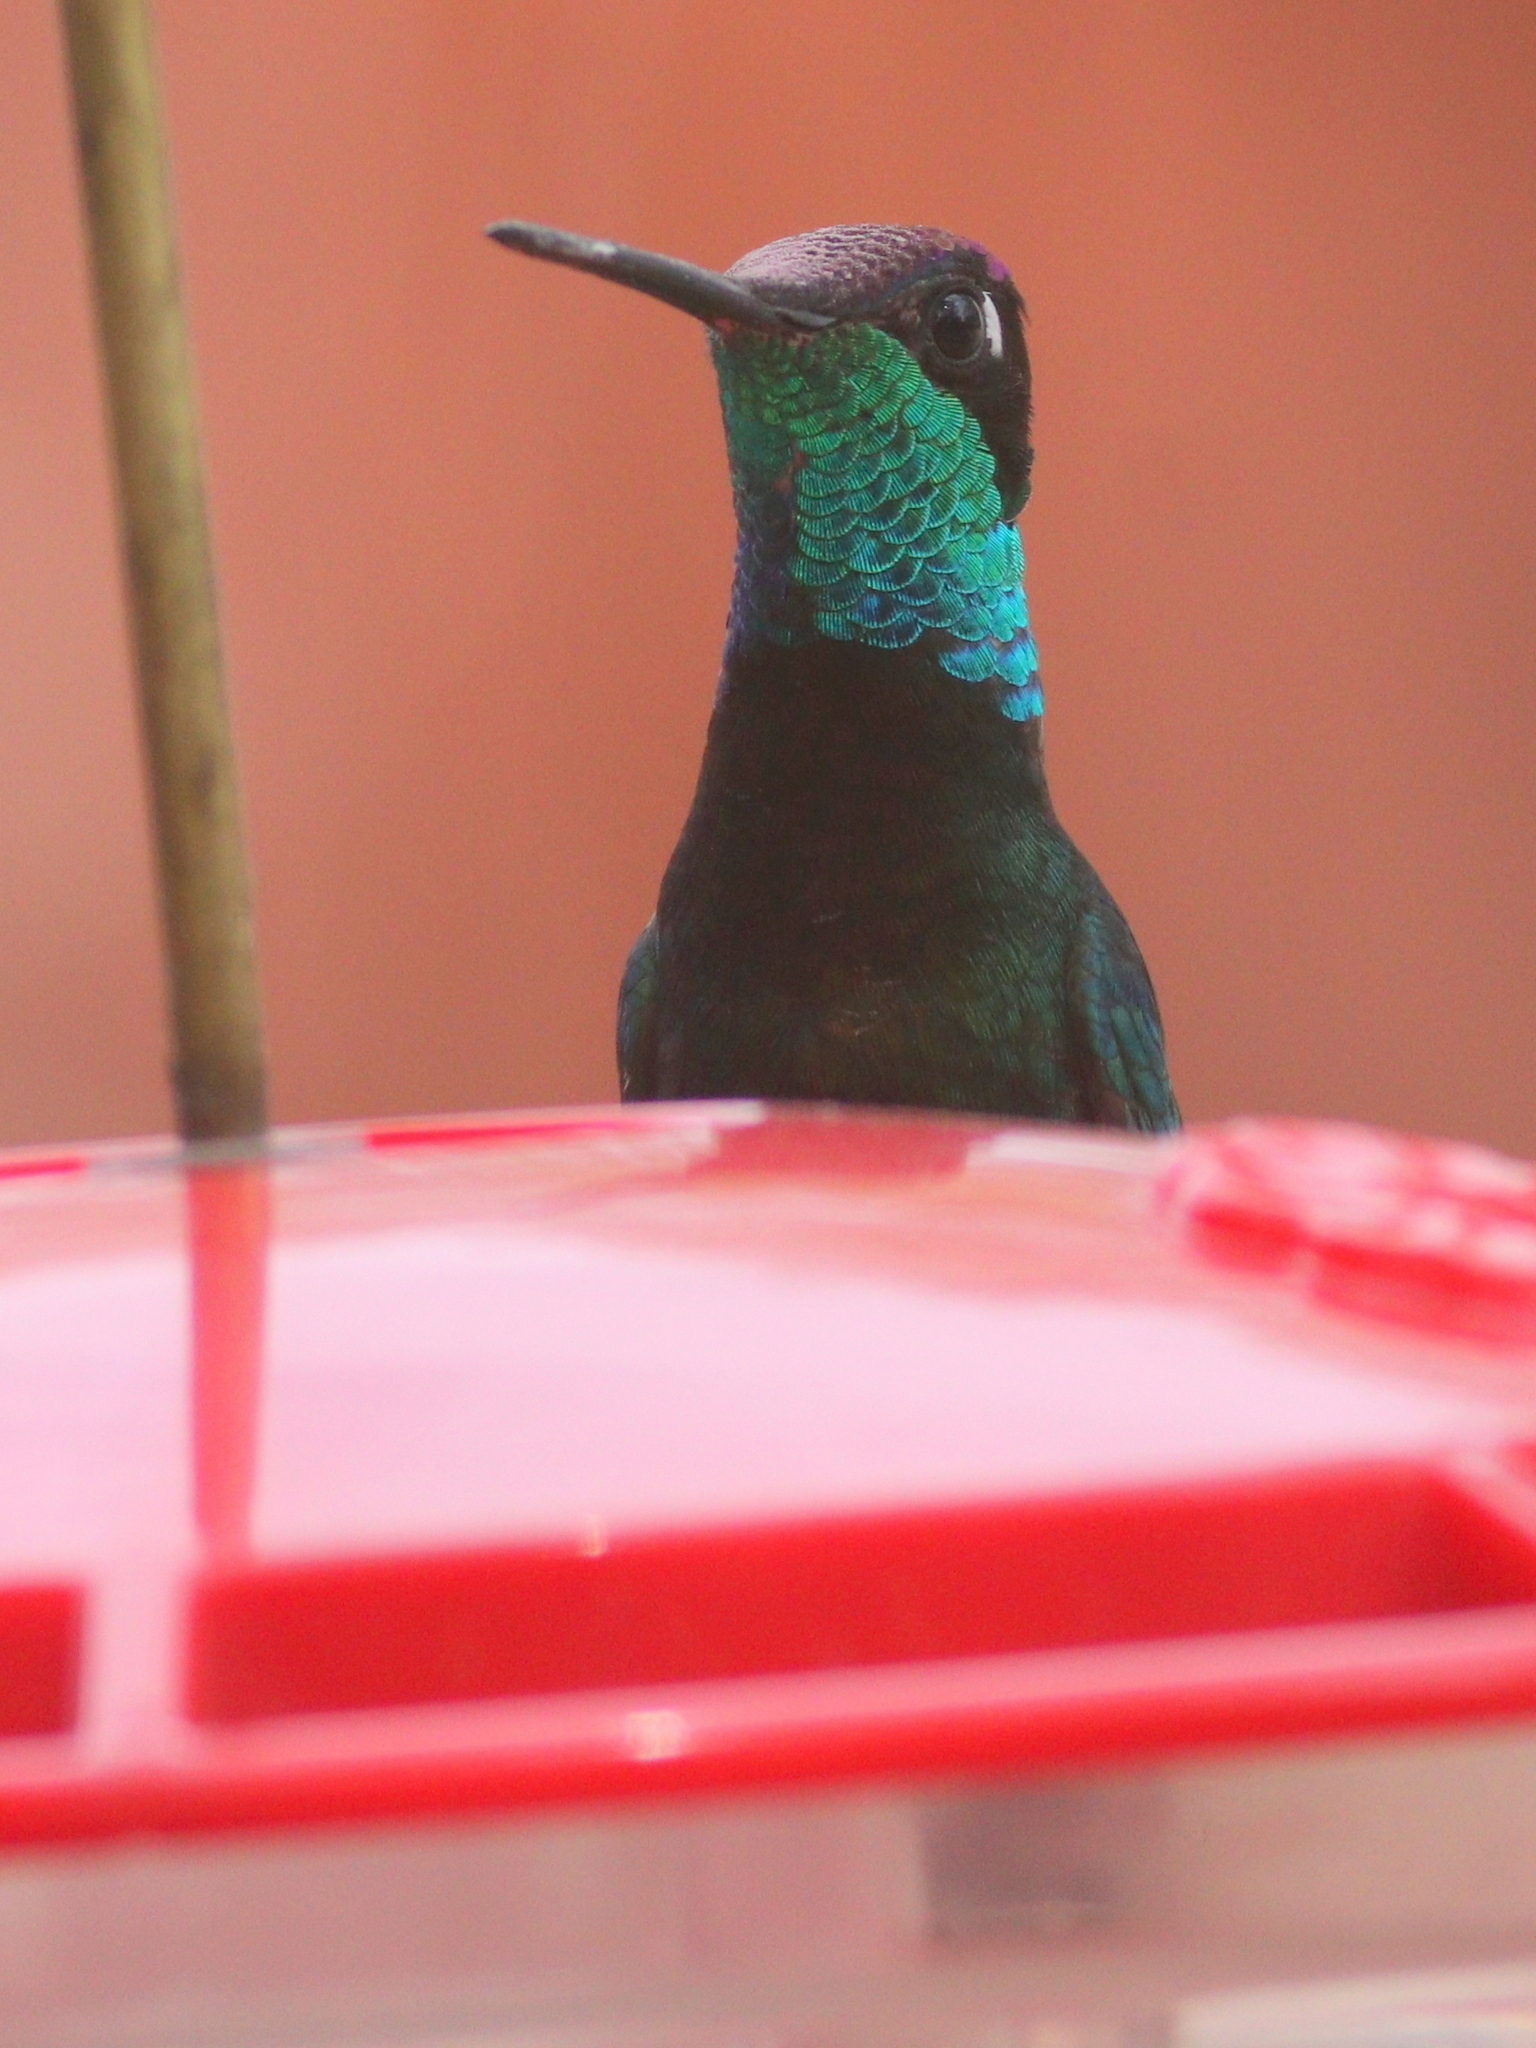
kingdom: Animalia
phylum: Chordata
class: Aves
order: Apodiformes
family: Trochilidae
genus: Eugenes
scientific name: Eugenes fulgens
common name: Magnificent hummingbird
